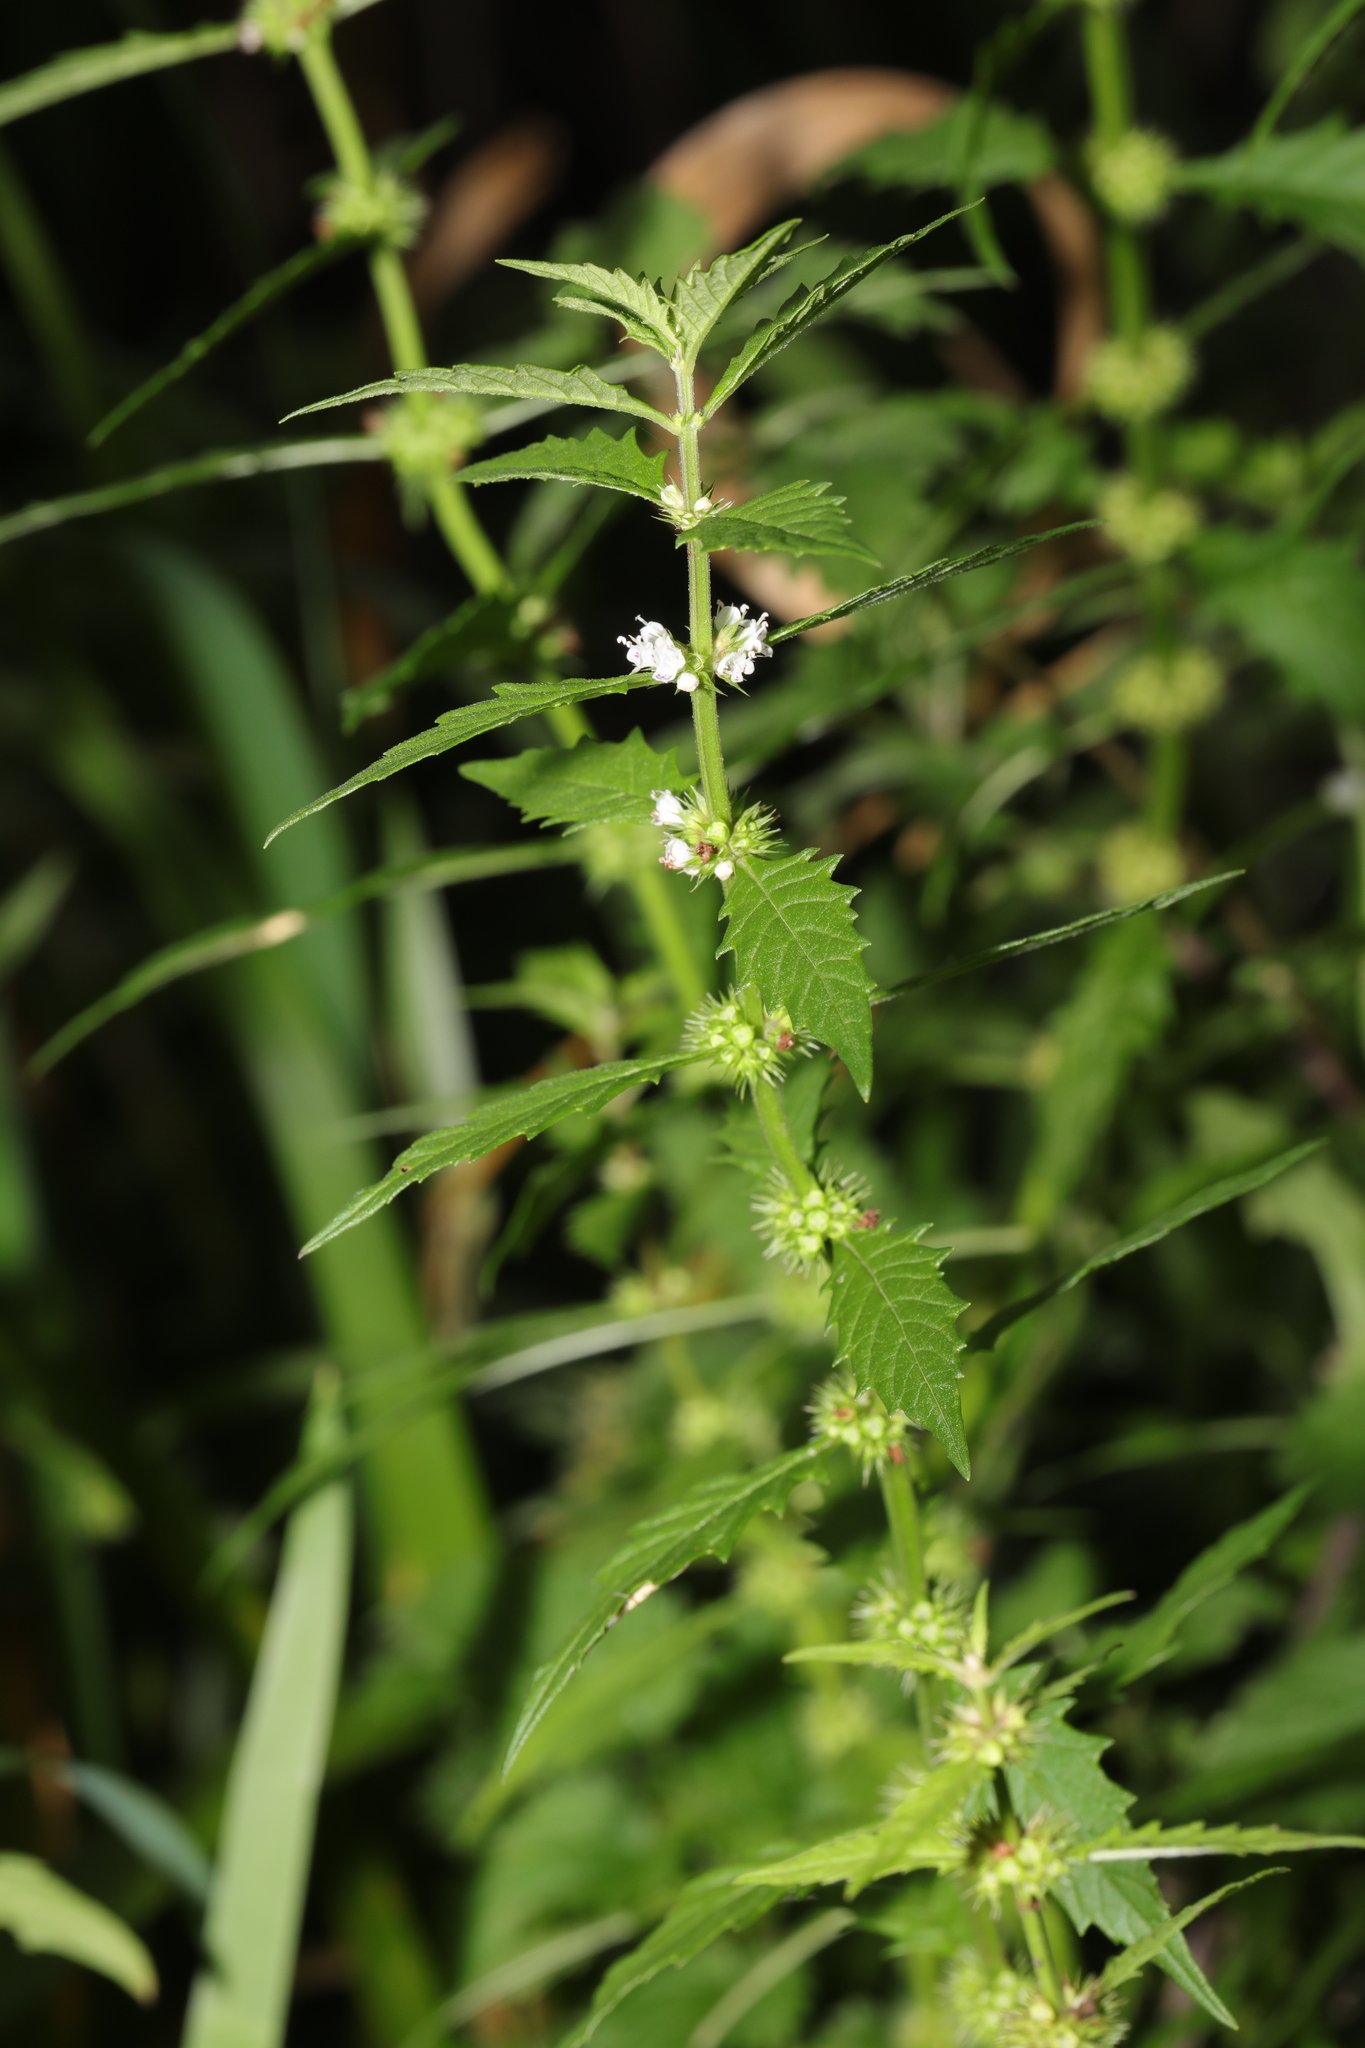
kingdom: Plantae
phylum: Tracheophyta
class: Magnoliopsida
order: Lamiales
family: Lamiaceae
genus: Lycopus
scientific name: Lycopus europaeus
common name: European bugleweed
